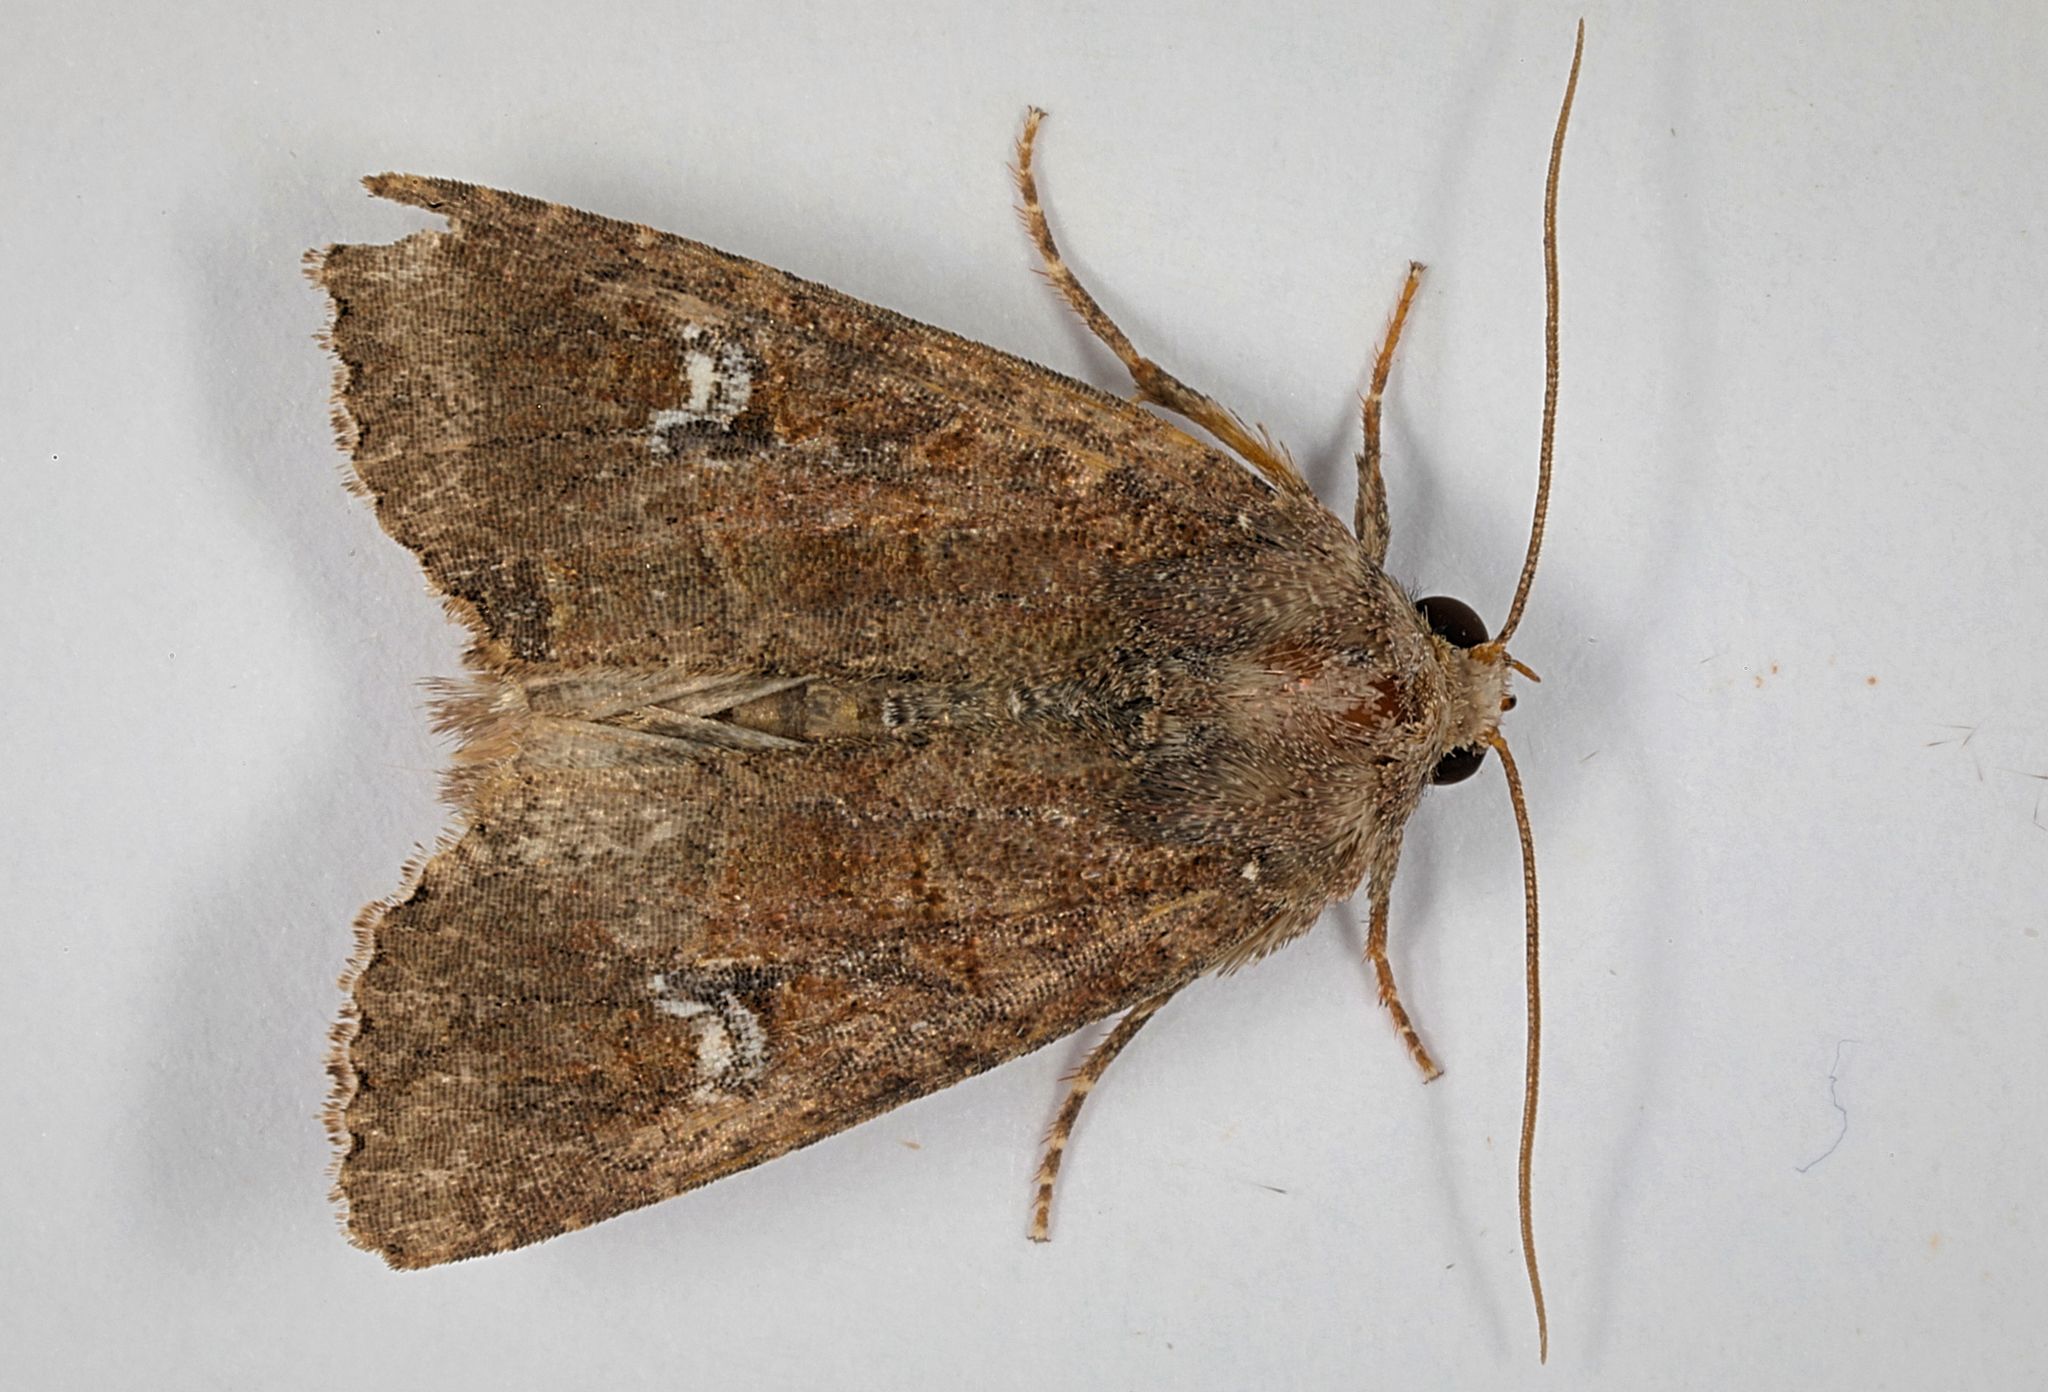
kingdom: Animalia
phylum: Arthropoda
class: Insecta
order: Lepidoptera
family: Noctuidae
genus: Mesapamea
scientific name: Mesapamea
